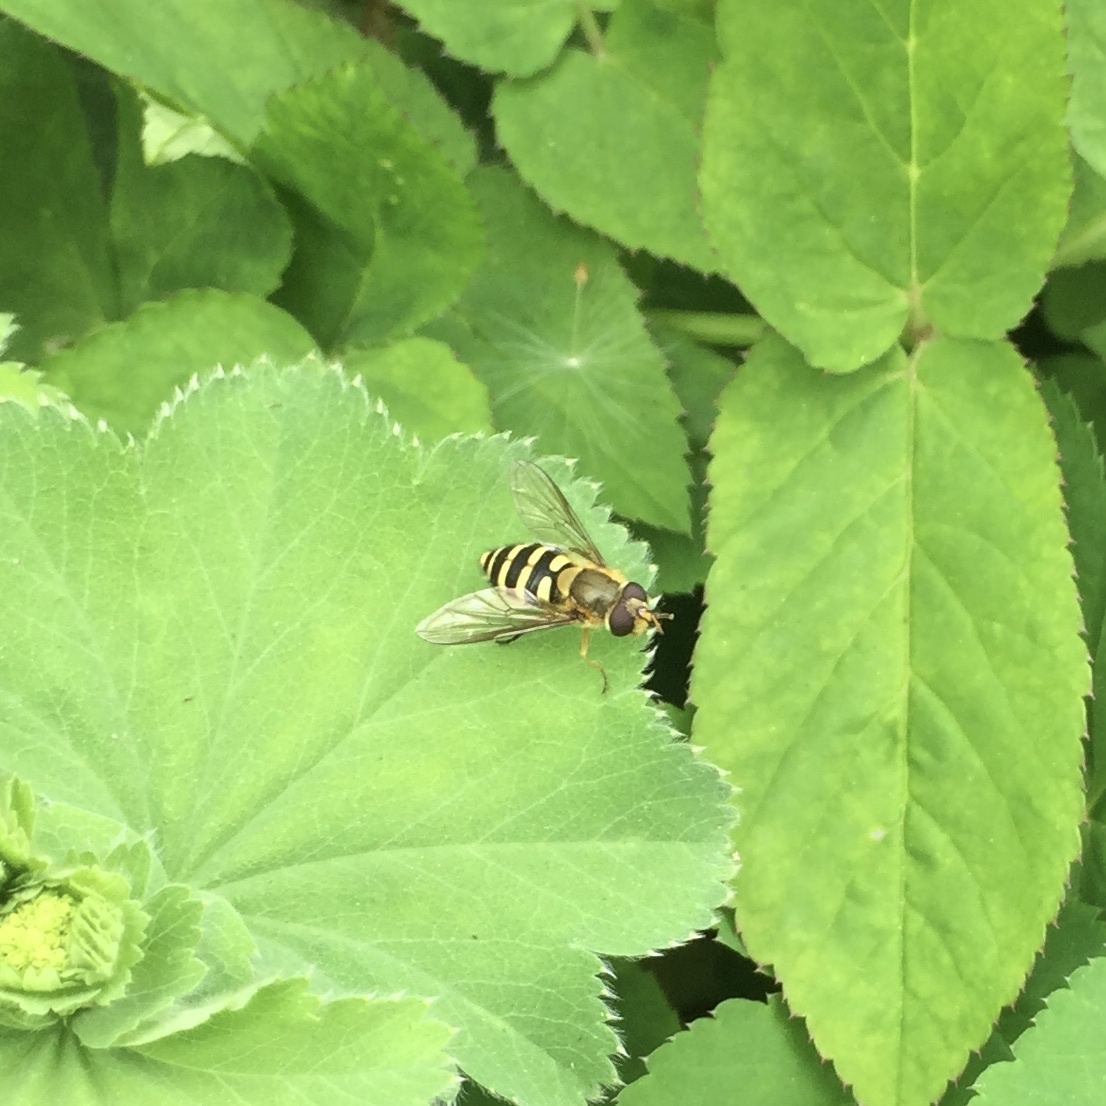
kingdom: Animalia
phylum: Arthropoda
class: Insecta
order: Diptera
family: Syrphidae
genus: Syrphus
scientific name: Syrphus
